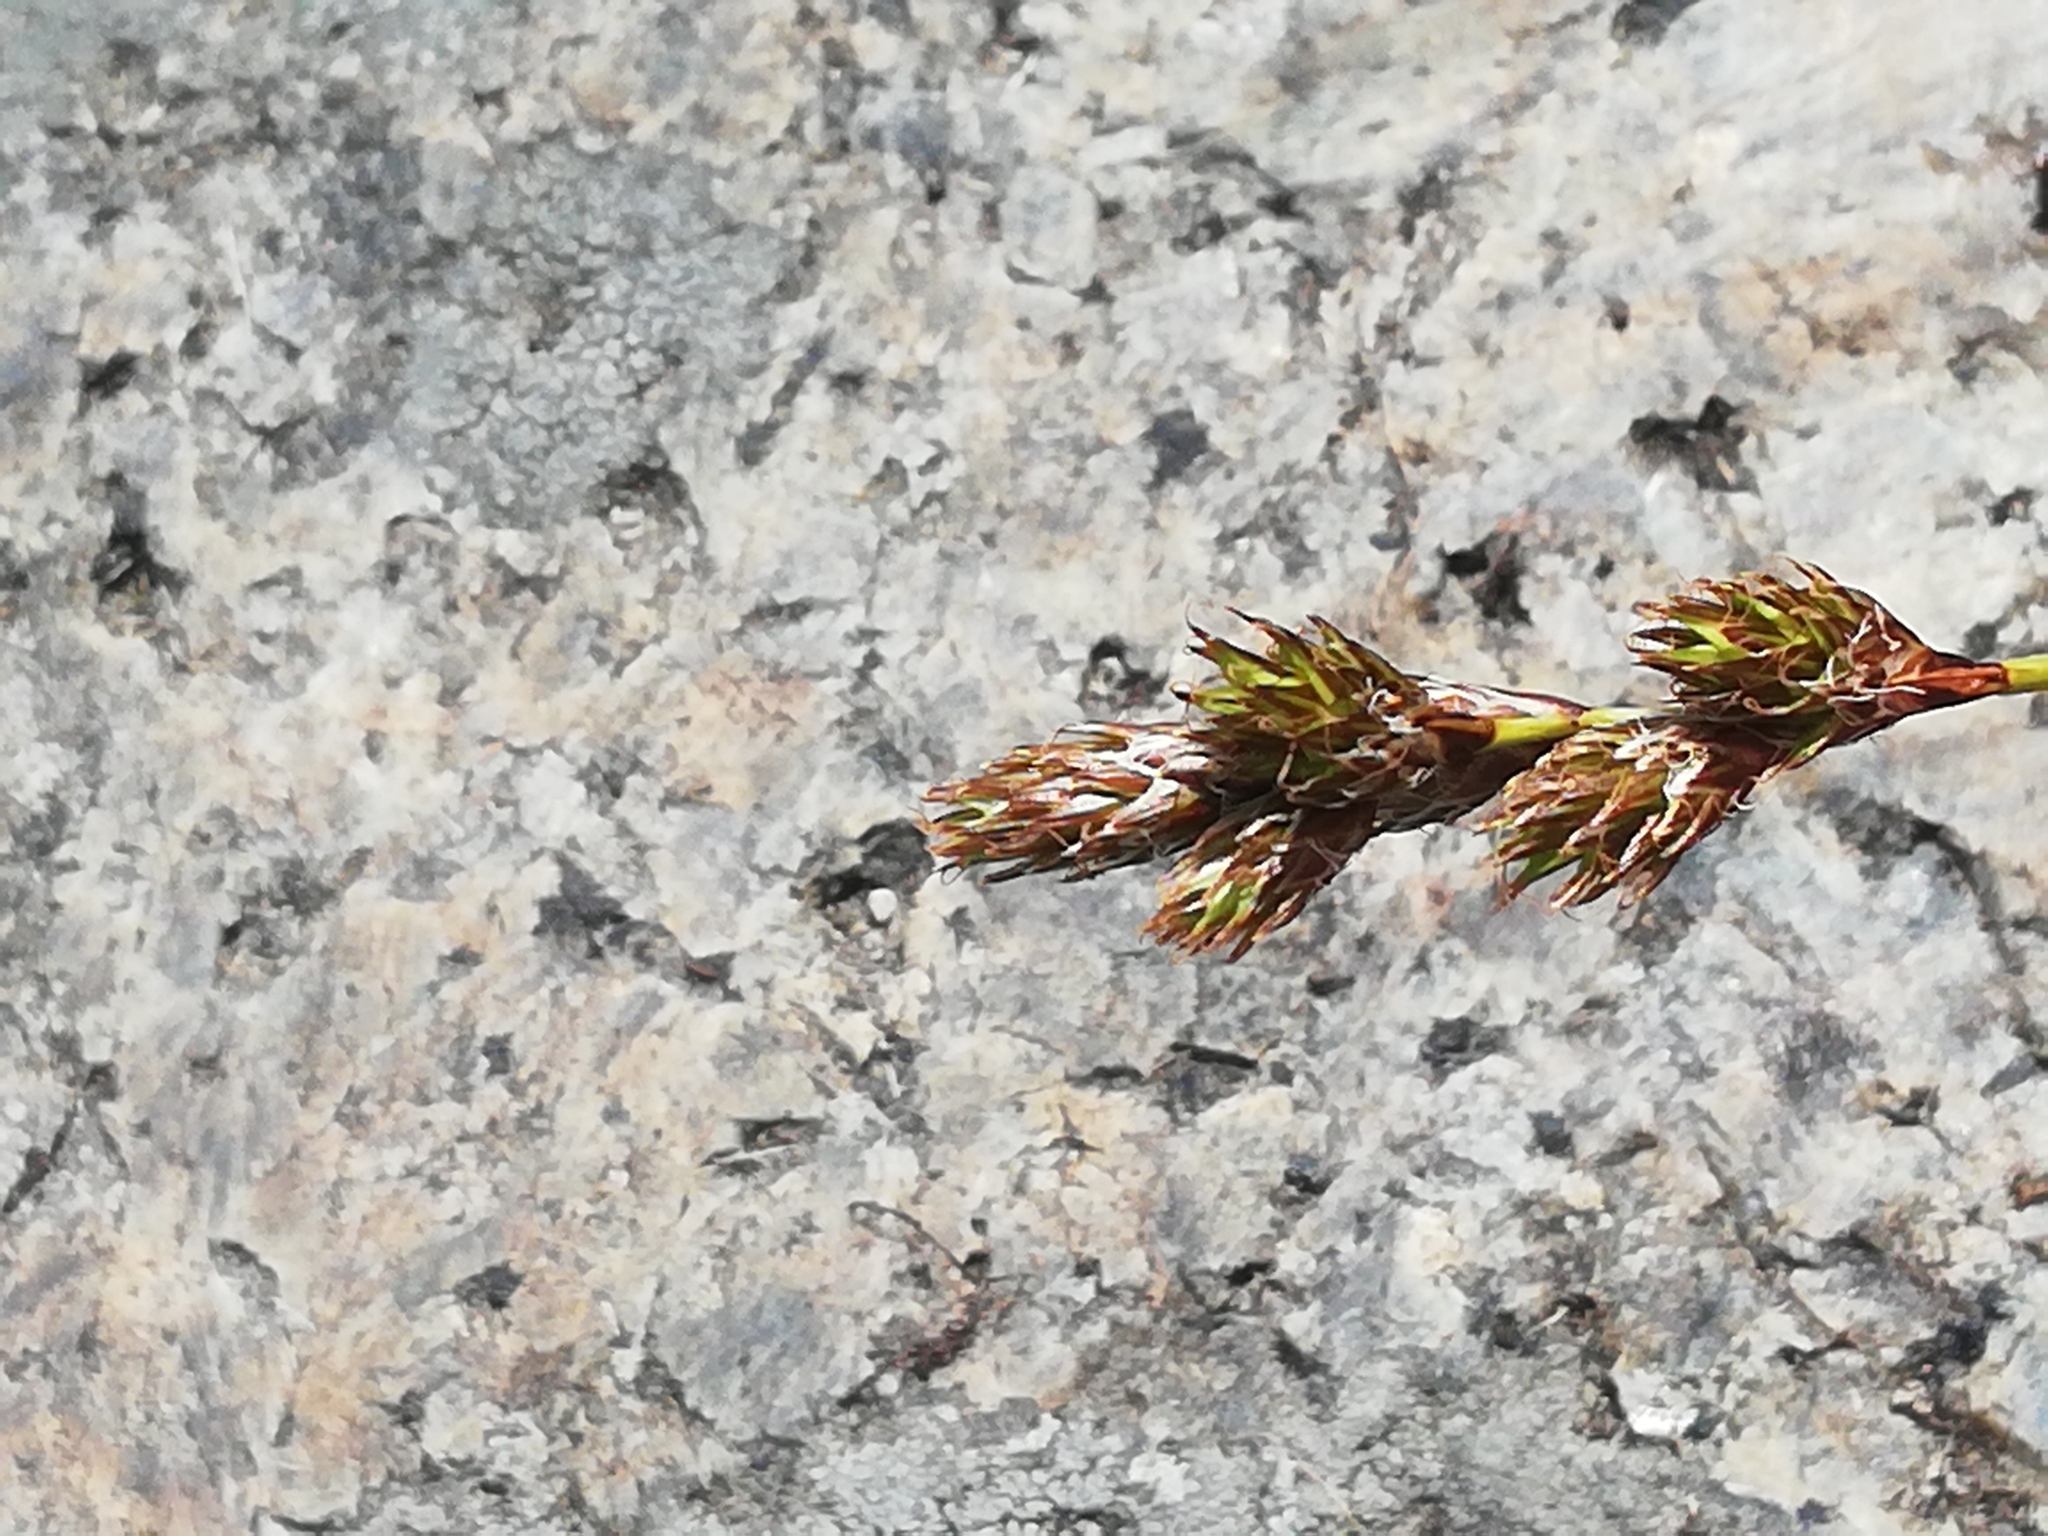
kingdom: Plantae
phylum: Tracheophyta
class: Liliopsida
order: Poales
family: Cyperaceae
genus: Carex
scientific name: Carex leporina
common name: Oval sedge
